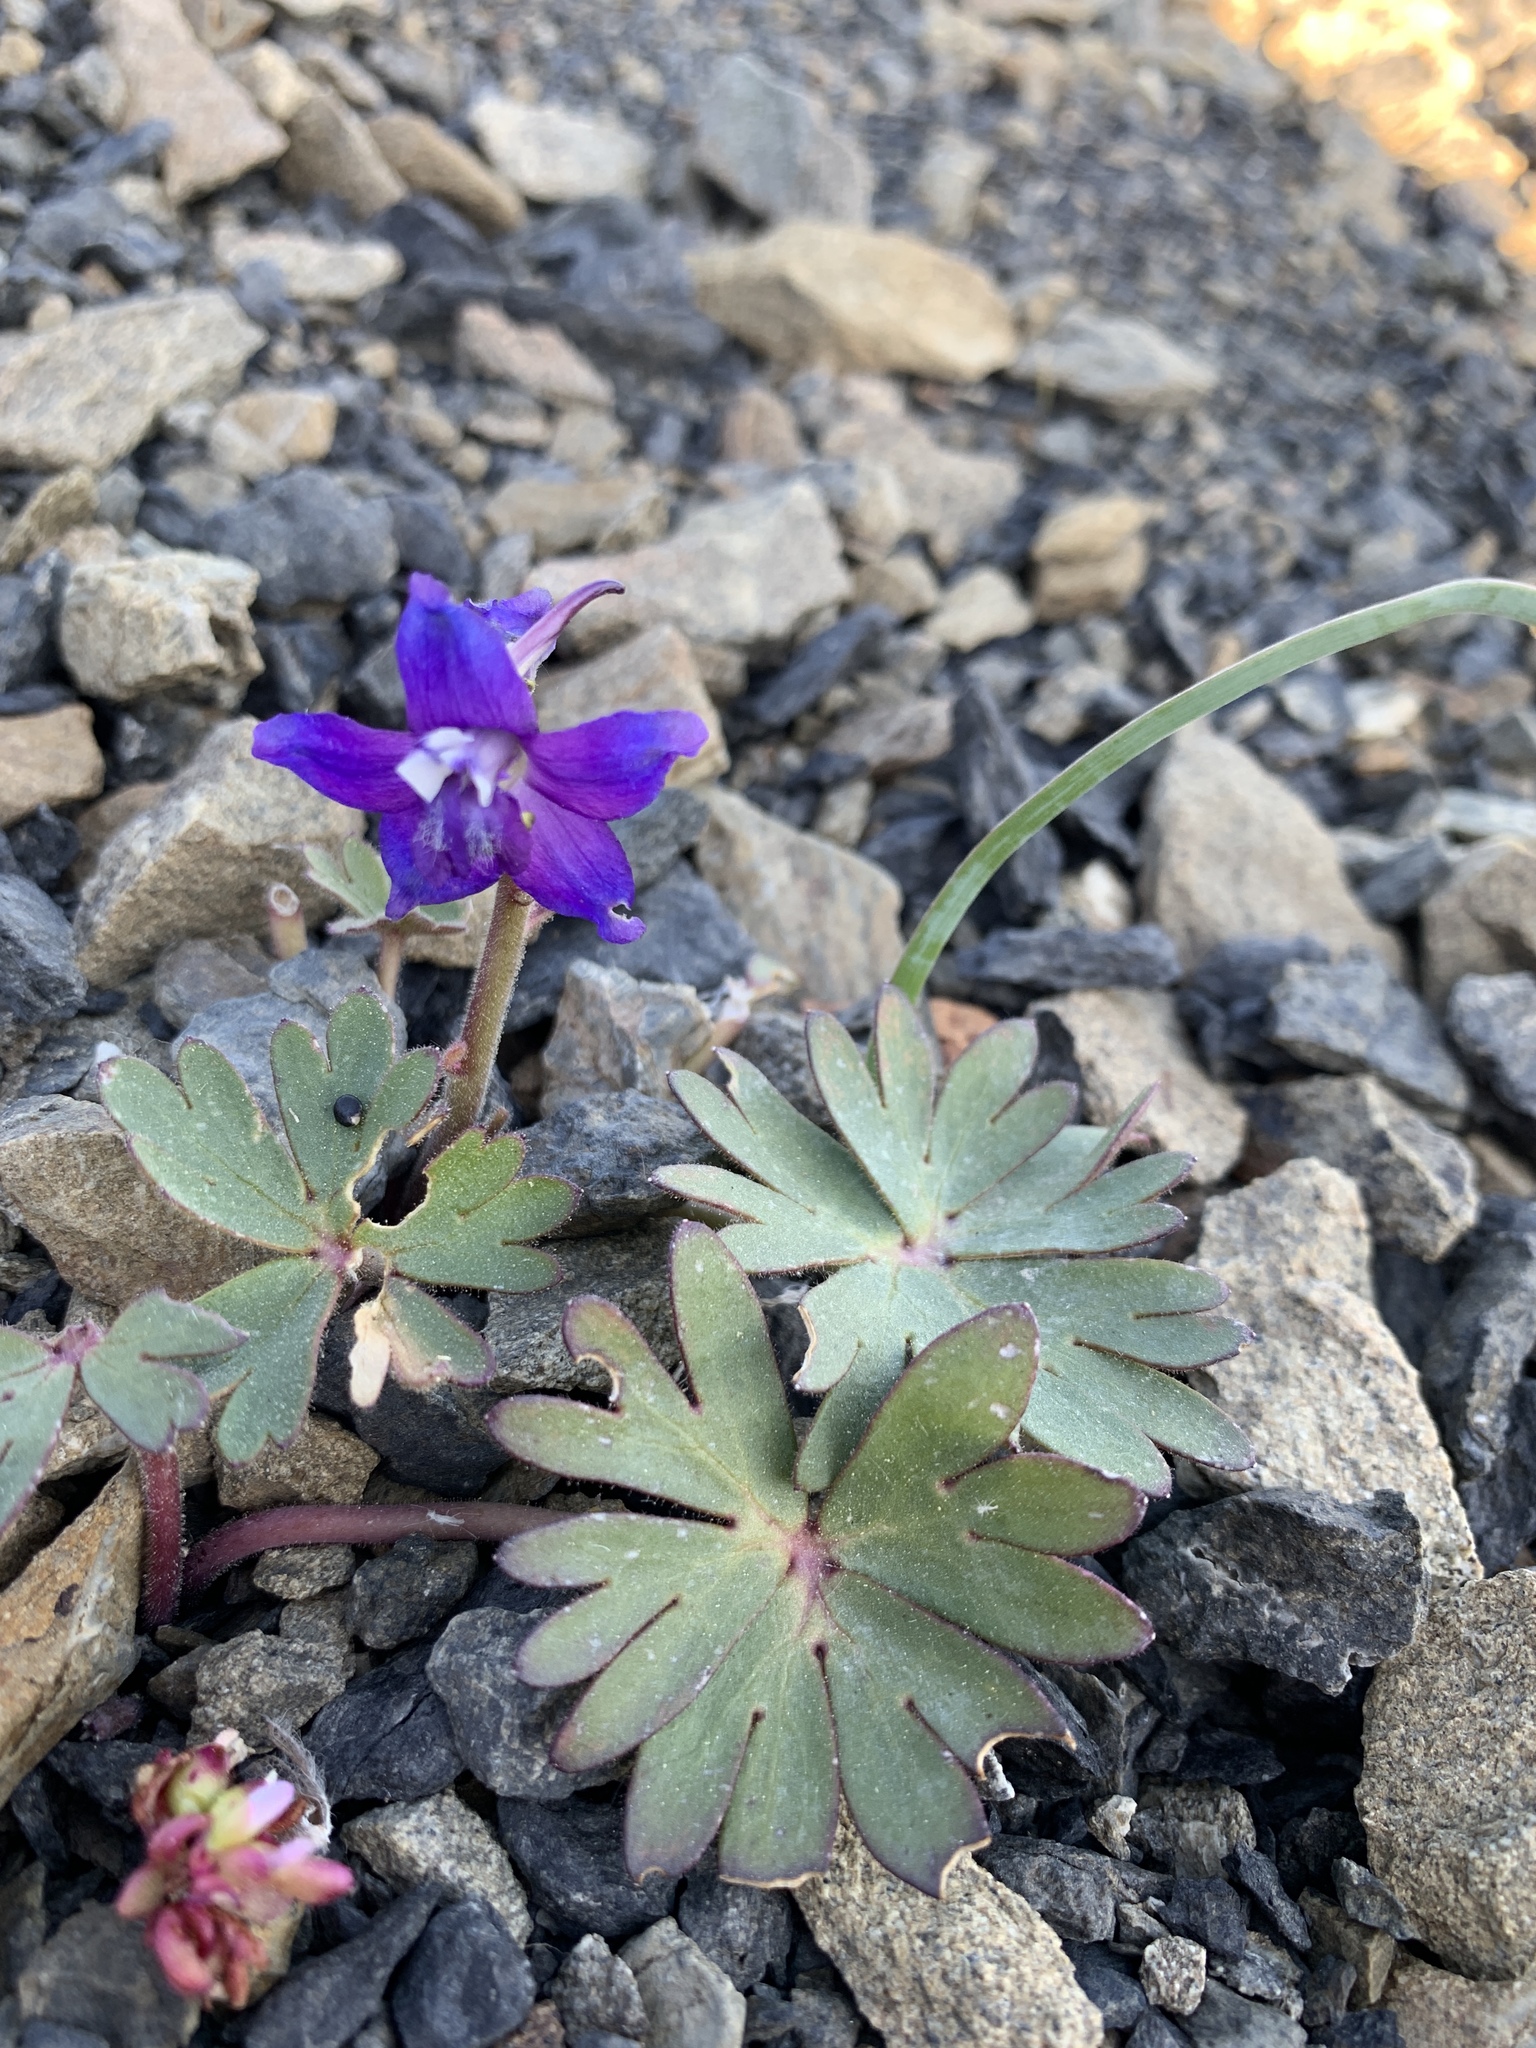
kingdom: Plantae
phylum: Tracheophyta
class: Magnoliopsida
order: Ranunculales
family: Ranunculaceae
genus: Delphinium
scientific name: Delphinium antoninum
